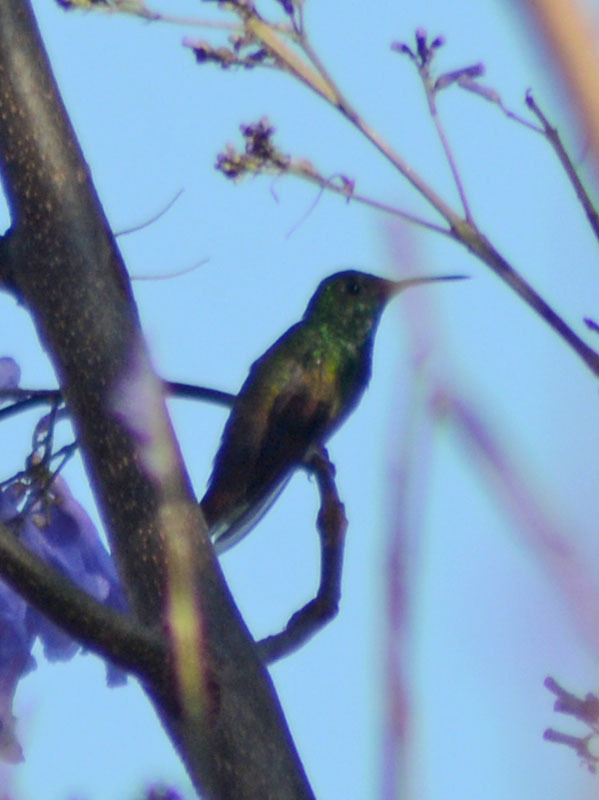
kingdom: Animalia
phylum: Chordata
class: Aves
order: Apodiformes
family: Trochilidae
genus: Saucerottia
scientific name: Saucerottia beryllina
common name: Berylline hummingbird
